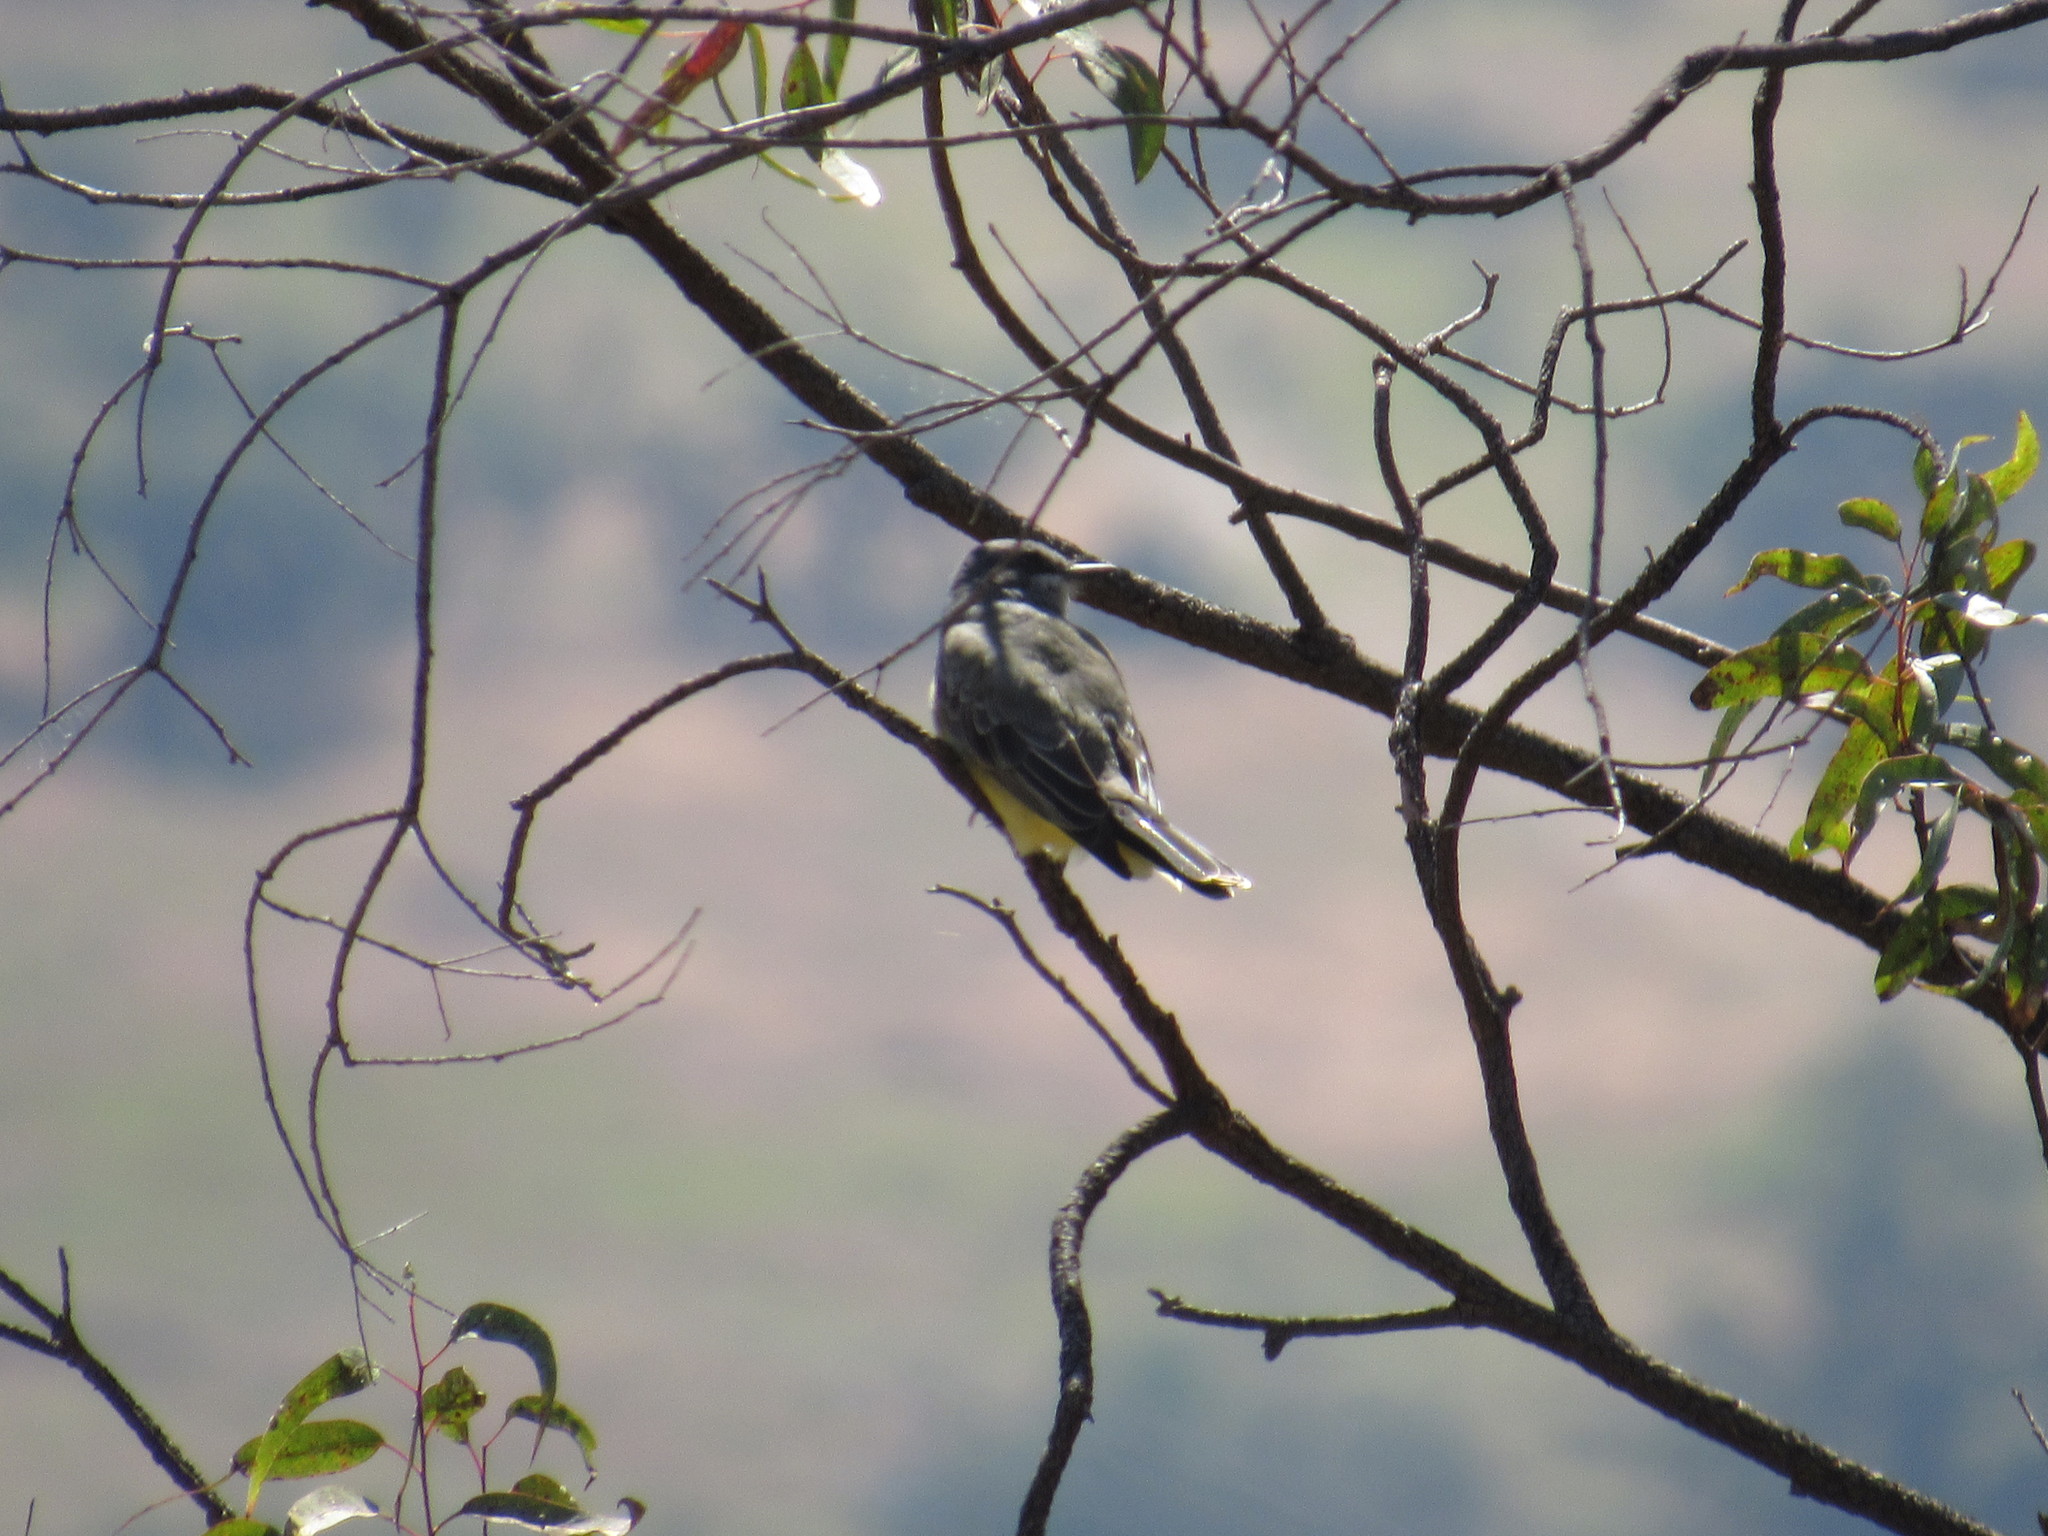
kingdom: Animalia
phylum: Chordata
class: Aves
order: Passeriformes
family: Tyrannidae
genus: Tyrannus
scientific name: Tyrannus vociferans
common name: Cassin's kingbird
